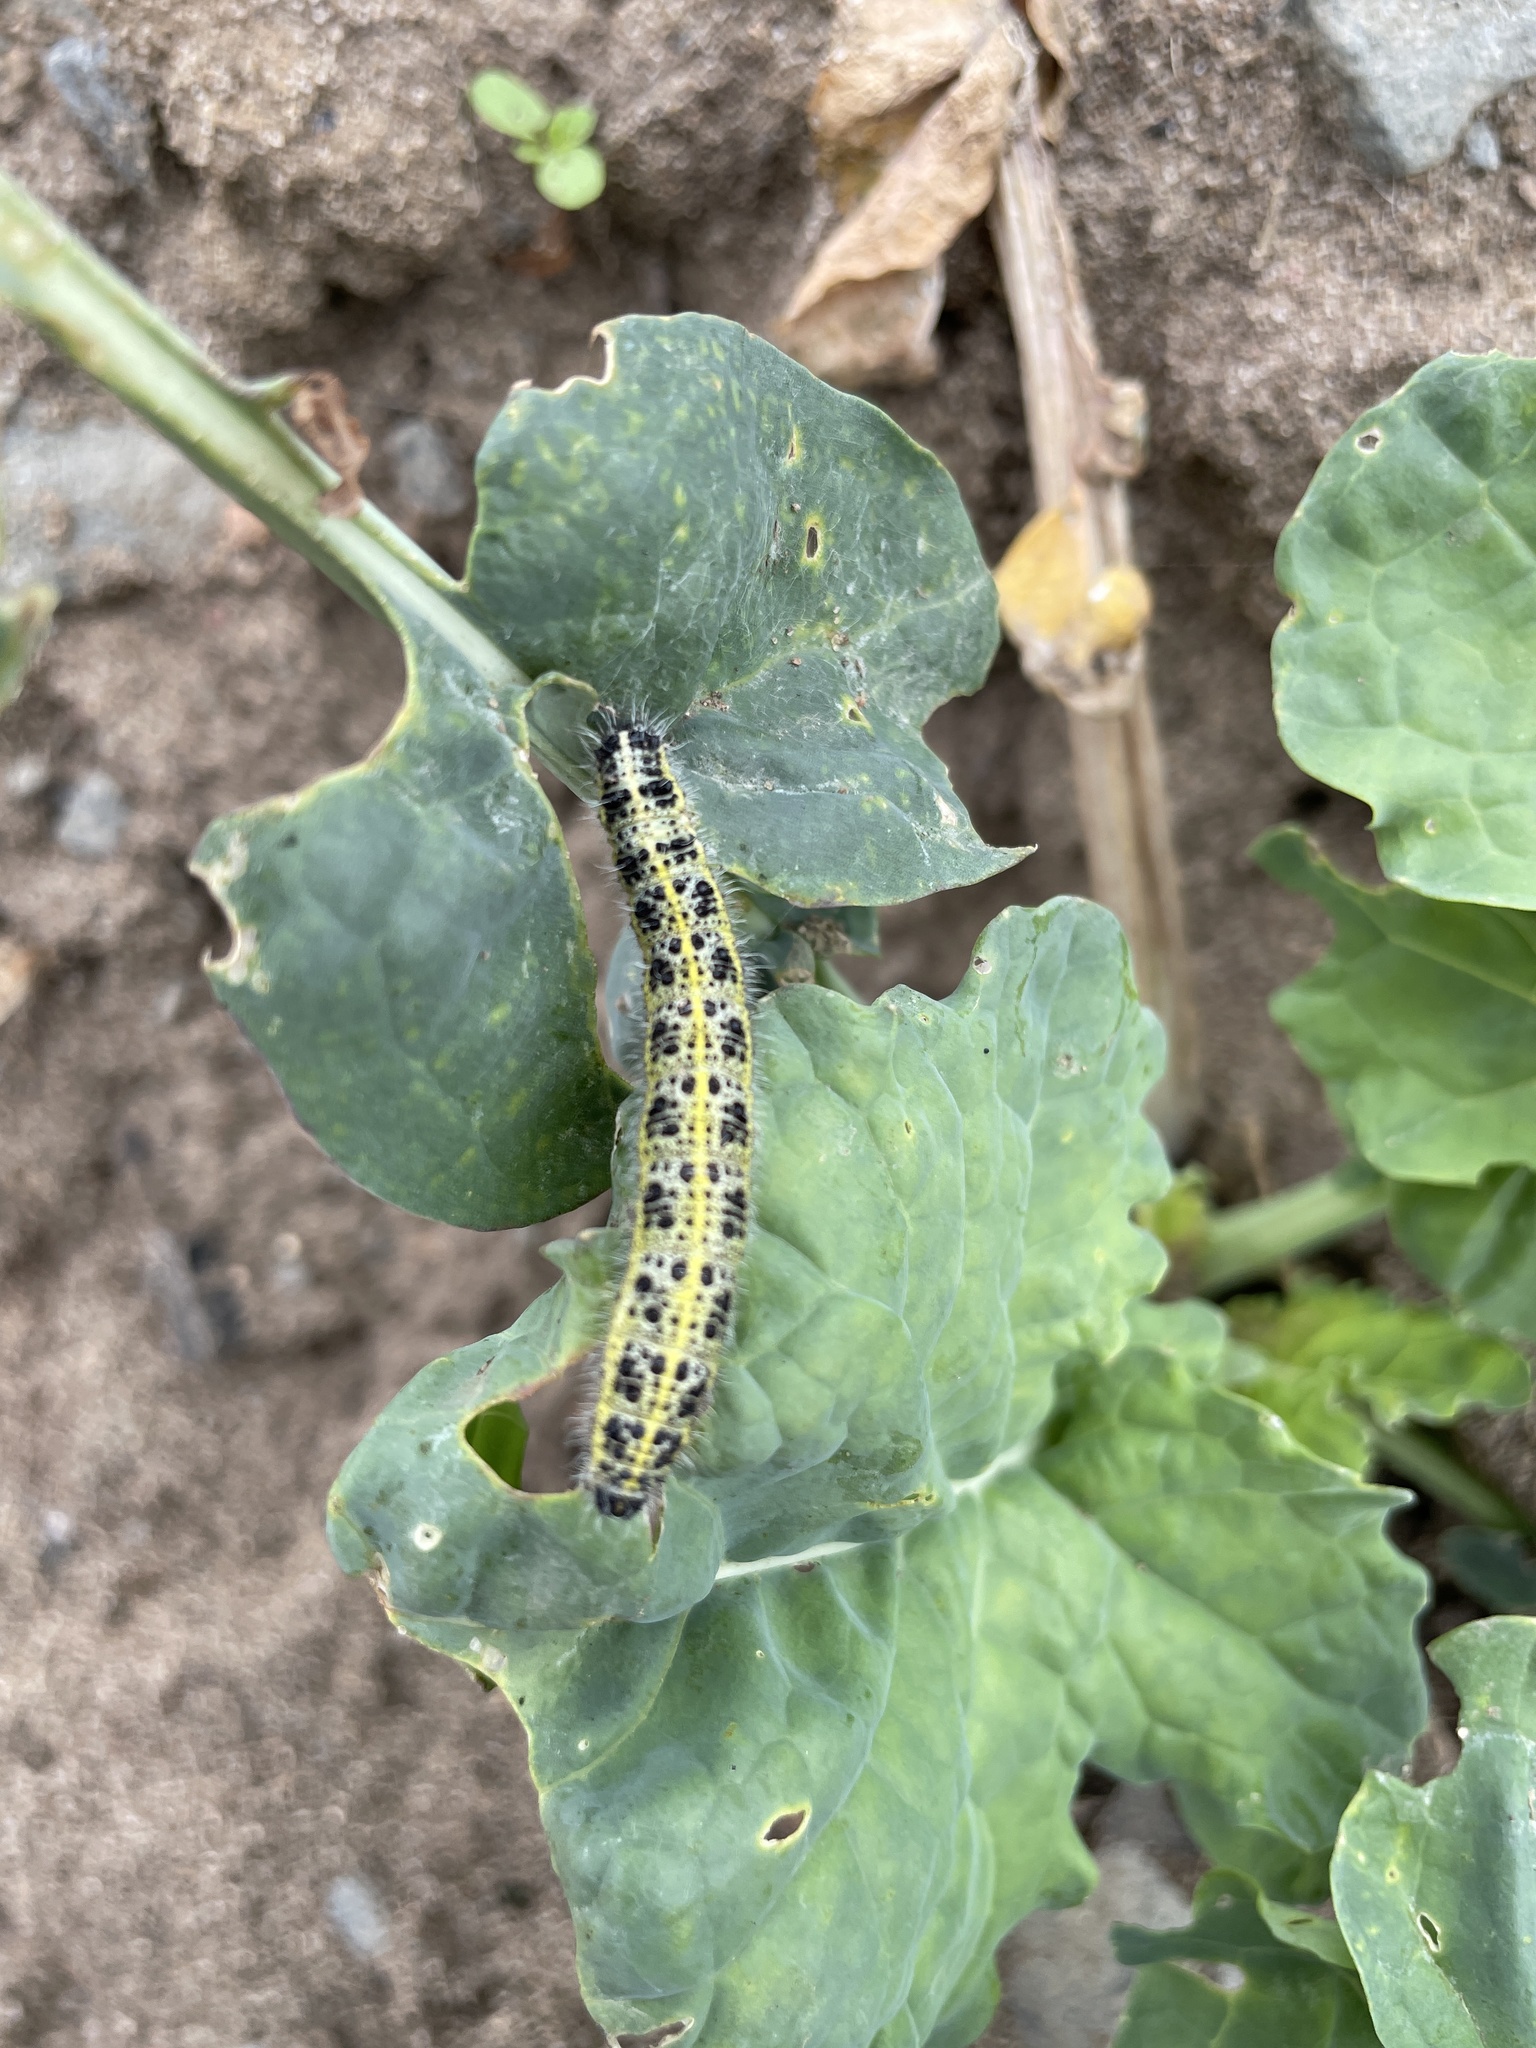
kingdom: Animalia
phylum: Arthropoda
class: Insecta
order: Lepidoptera
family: Pieridae
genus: Pieris
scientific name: Pieris brassicae
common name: Large white
